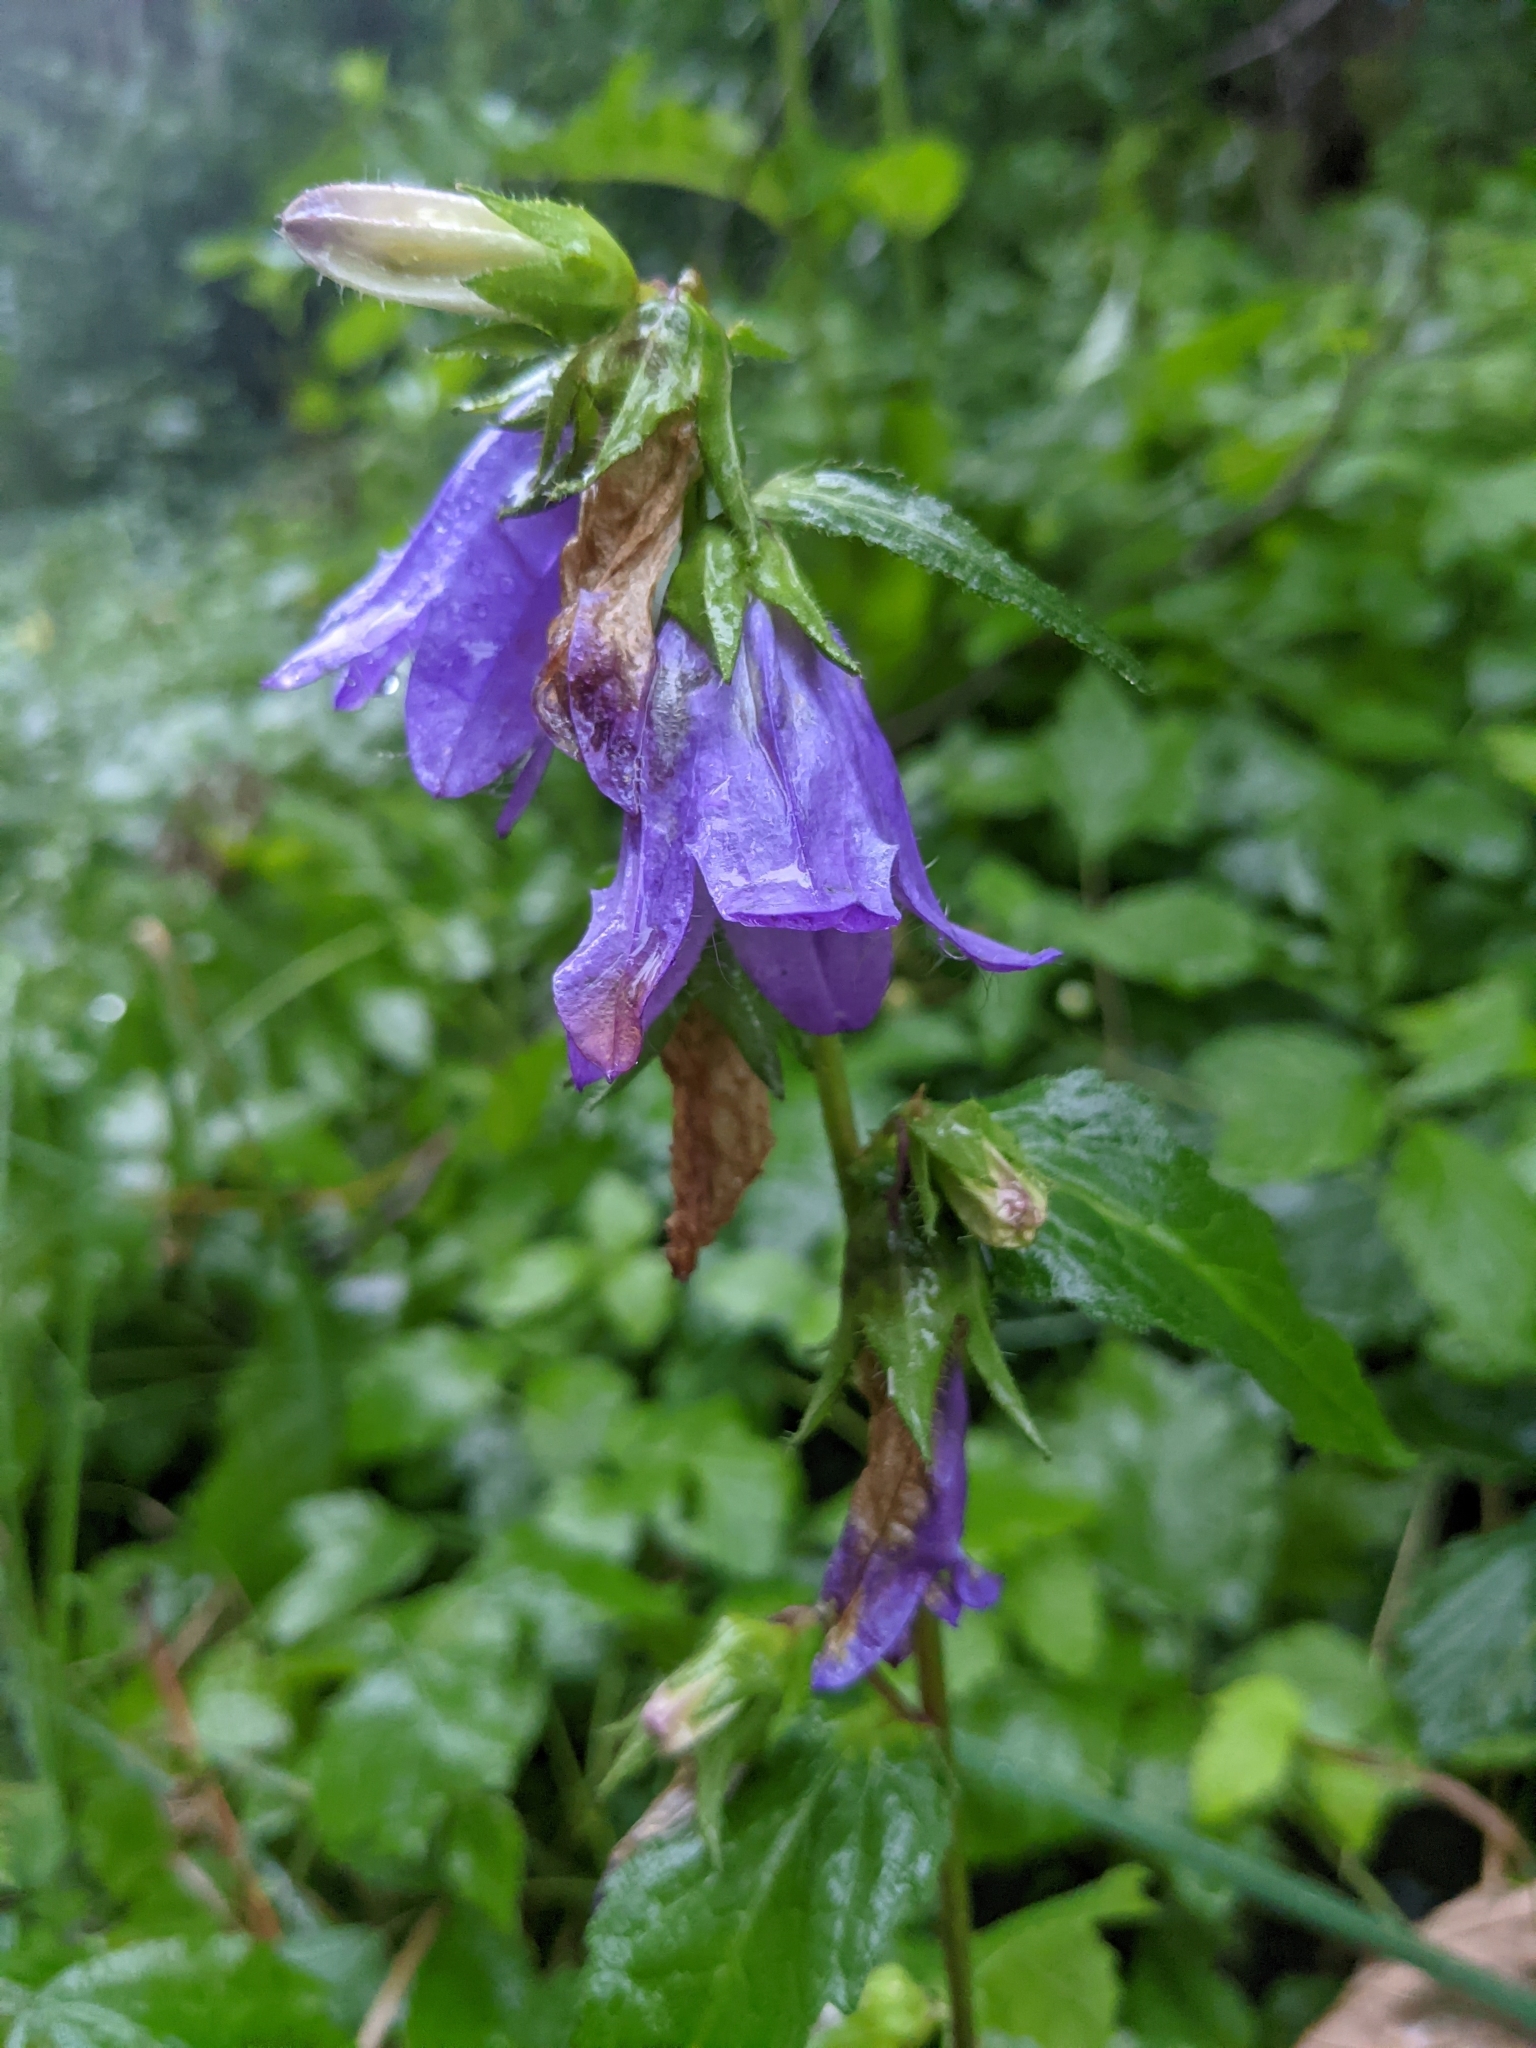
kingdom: Plantae
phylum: Tracheophyta
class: Magnoliopsida
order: Asterales
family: Campanulaceae
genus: Campanula
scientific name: Campanula trachelium
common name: Nettle-leaved bellflower
